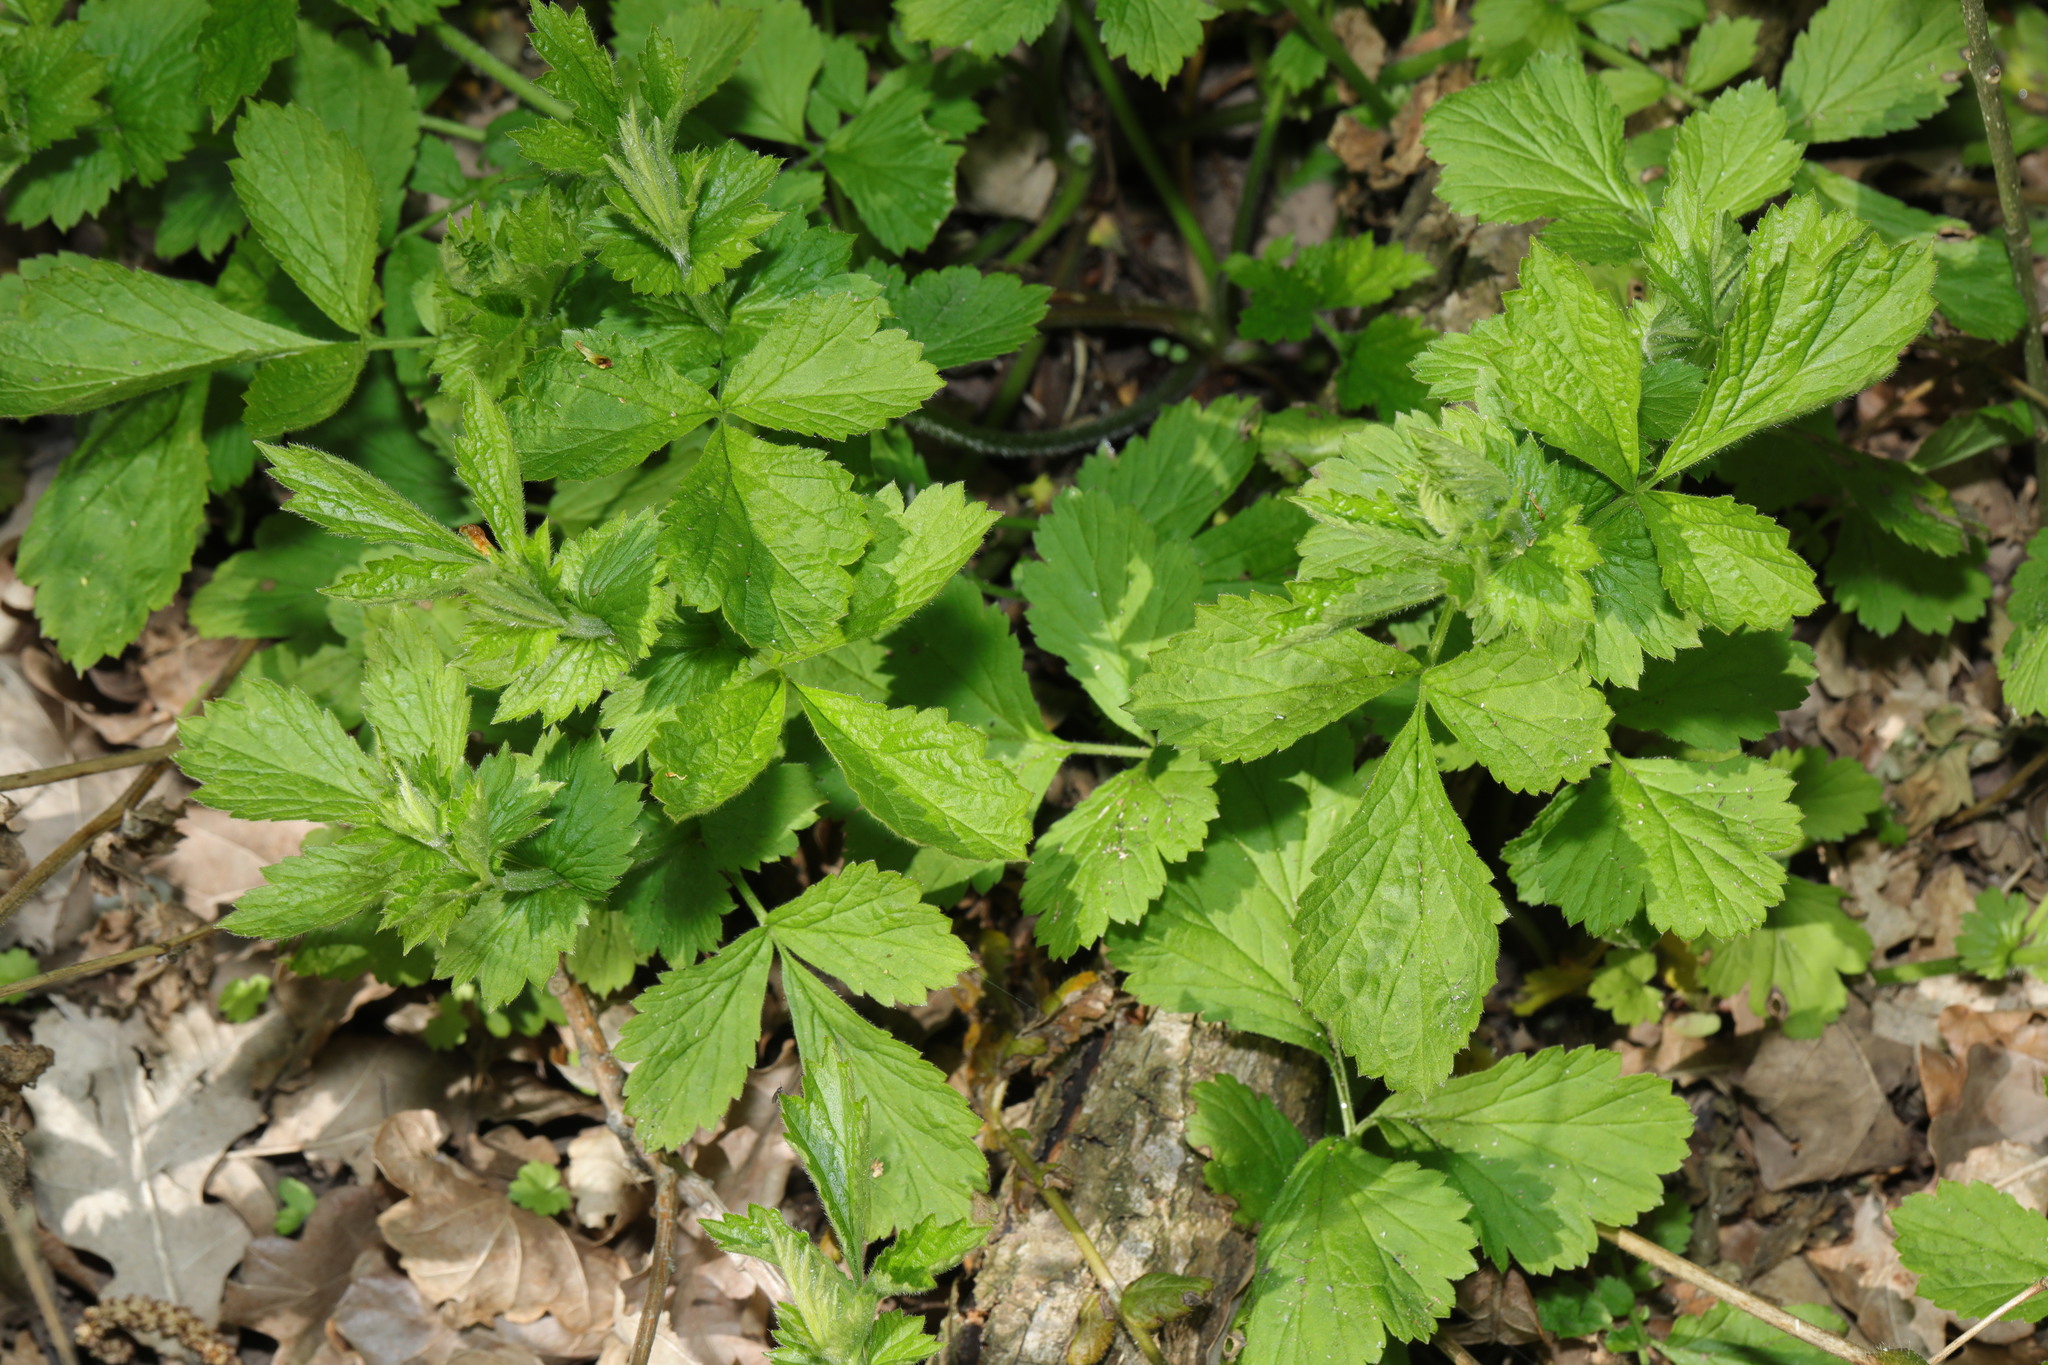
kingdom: Plantae
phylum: Tracheophyta
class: Magnoliopsida
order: Rosales
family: Rosaceae
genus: Geum
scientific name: Geum urbanum
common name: Wood avens
